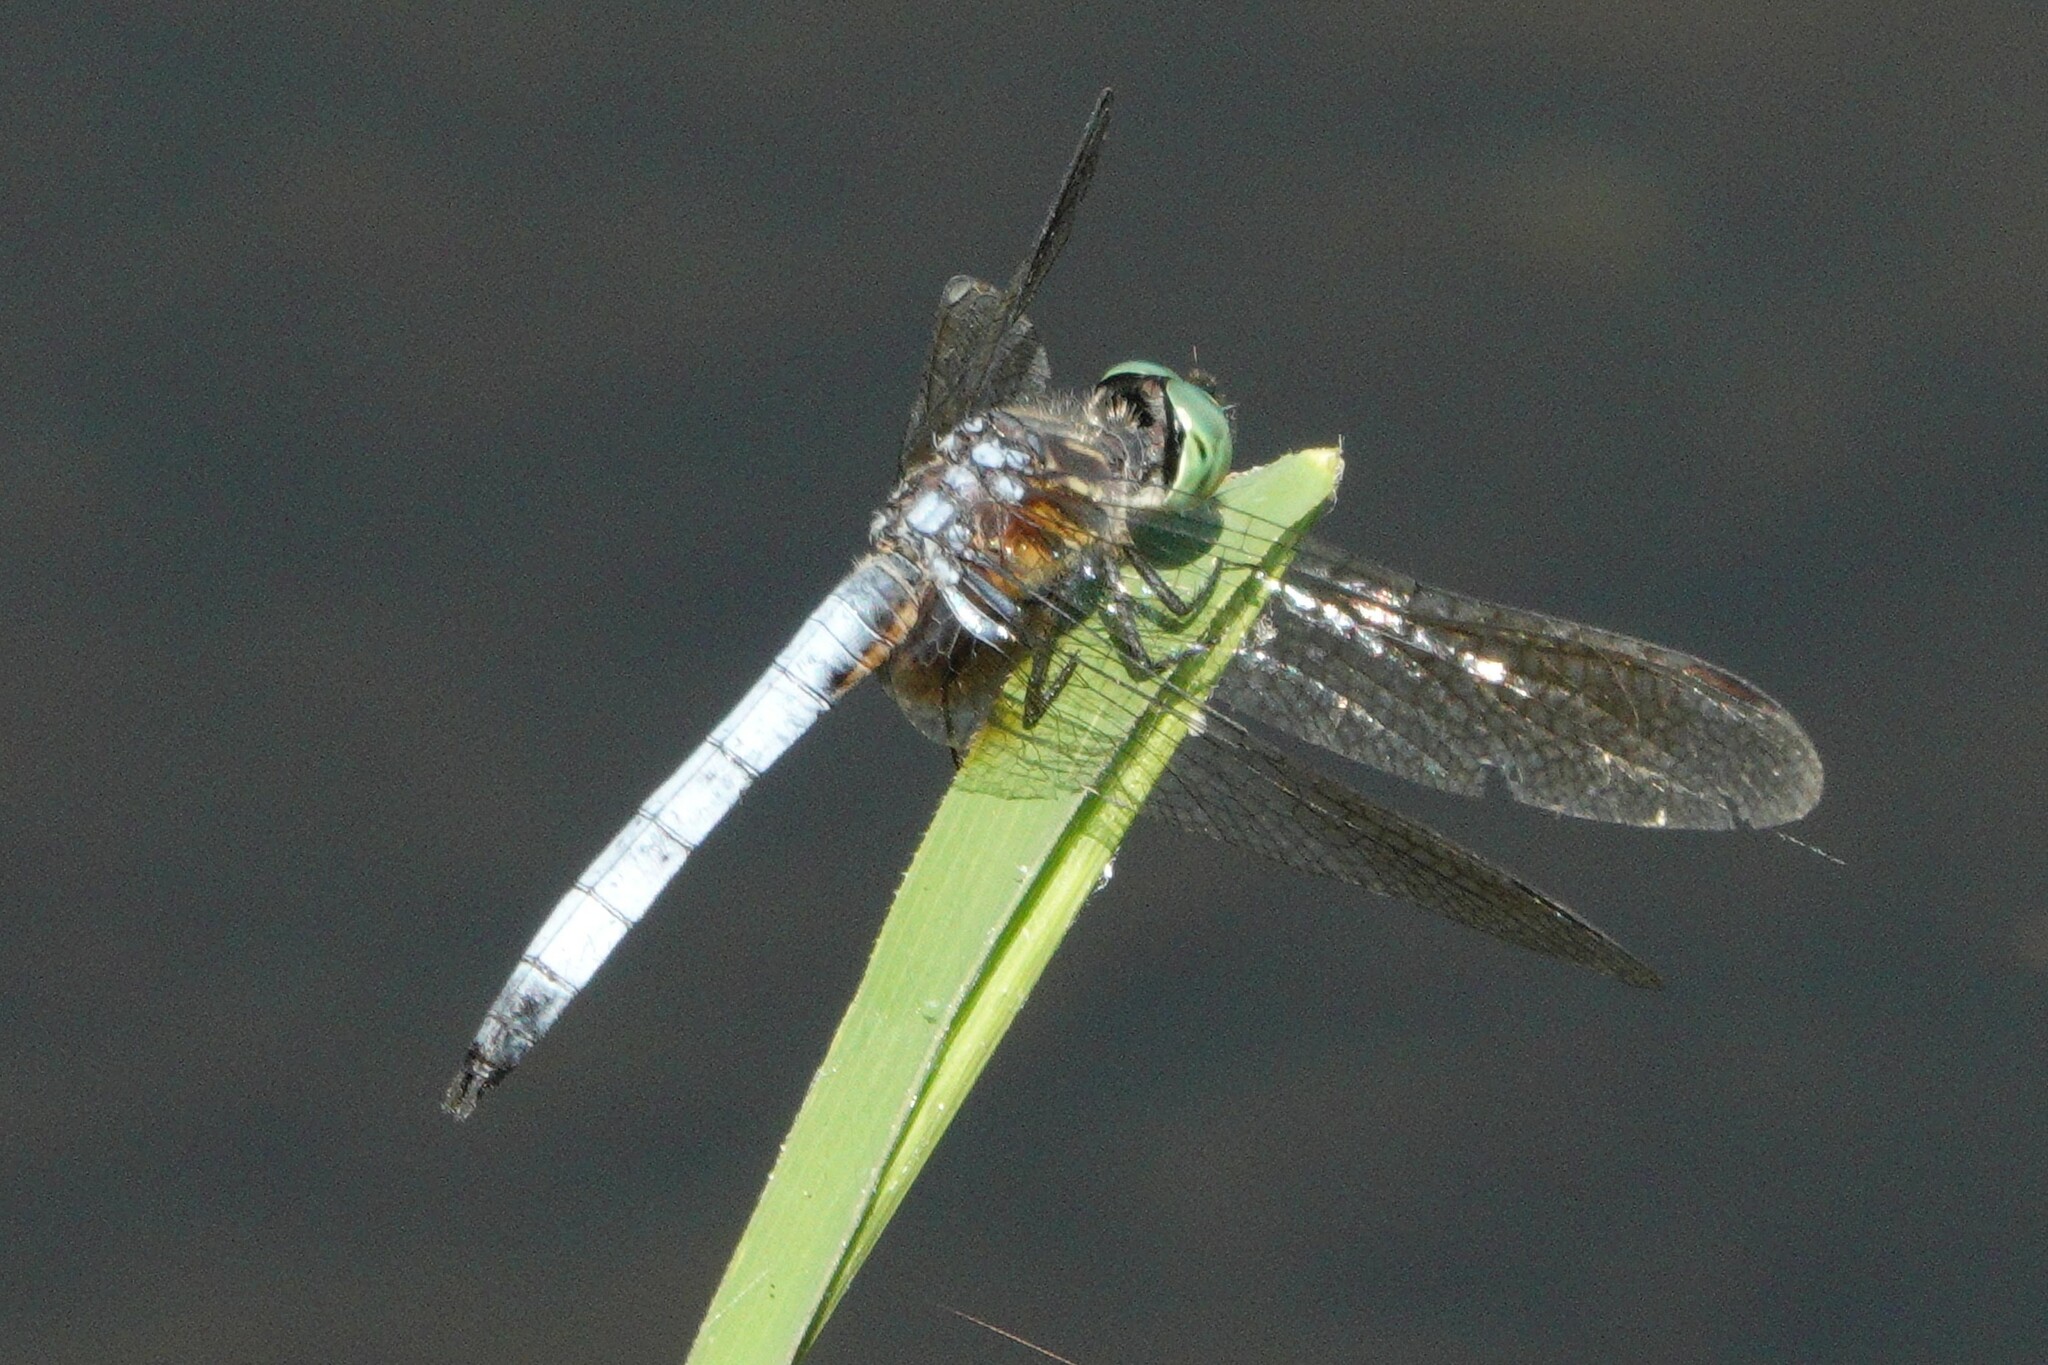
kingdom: Animalia
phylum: Arthropoda
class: Insecta
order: Odonata
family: Libellulidae
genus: Pachydiplax
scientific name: Pachydiplax longipennis
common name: Blue dasher
